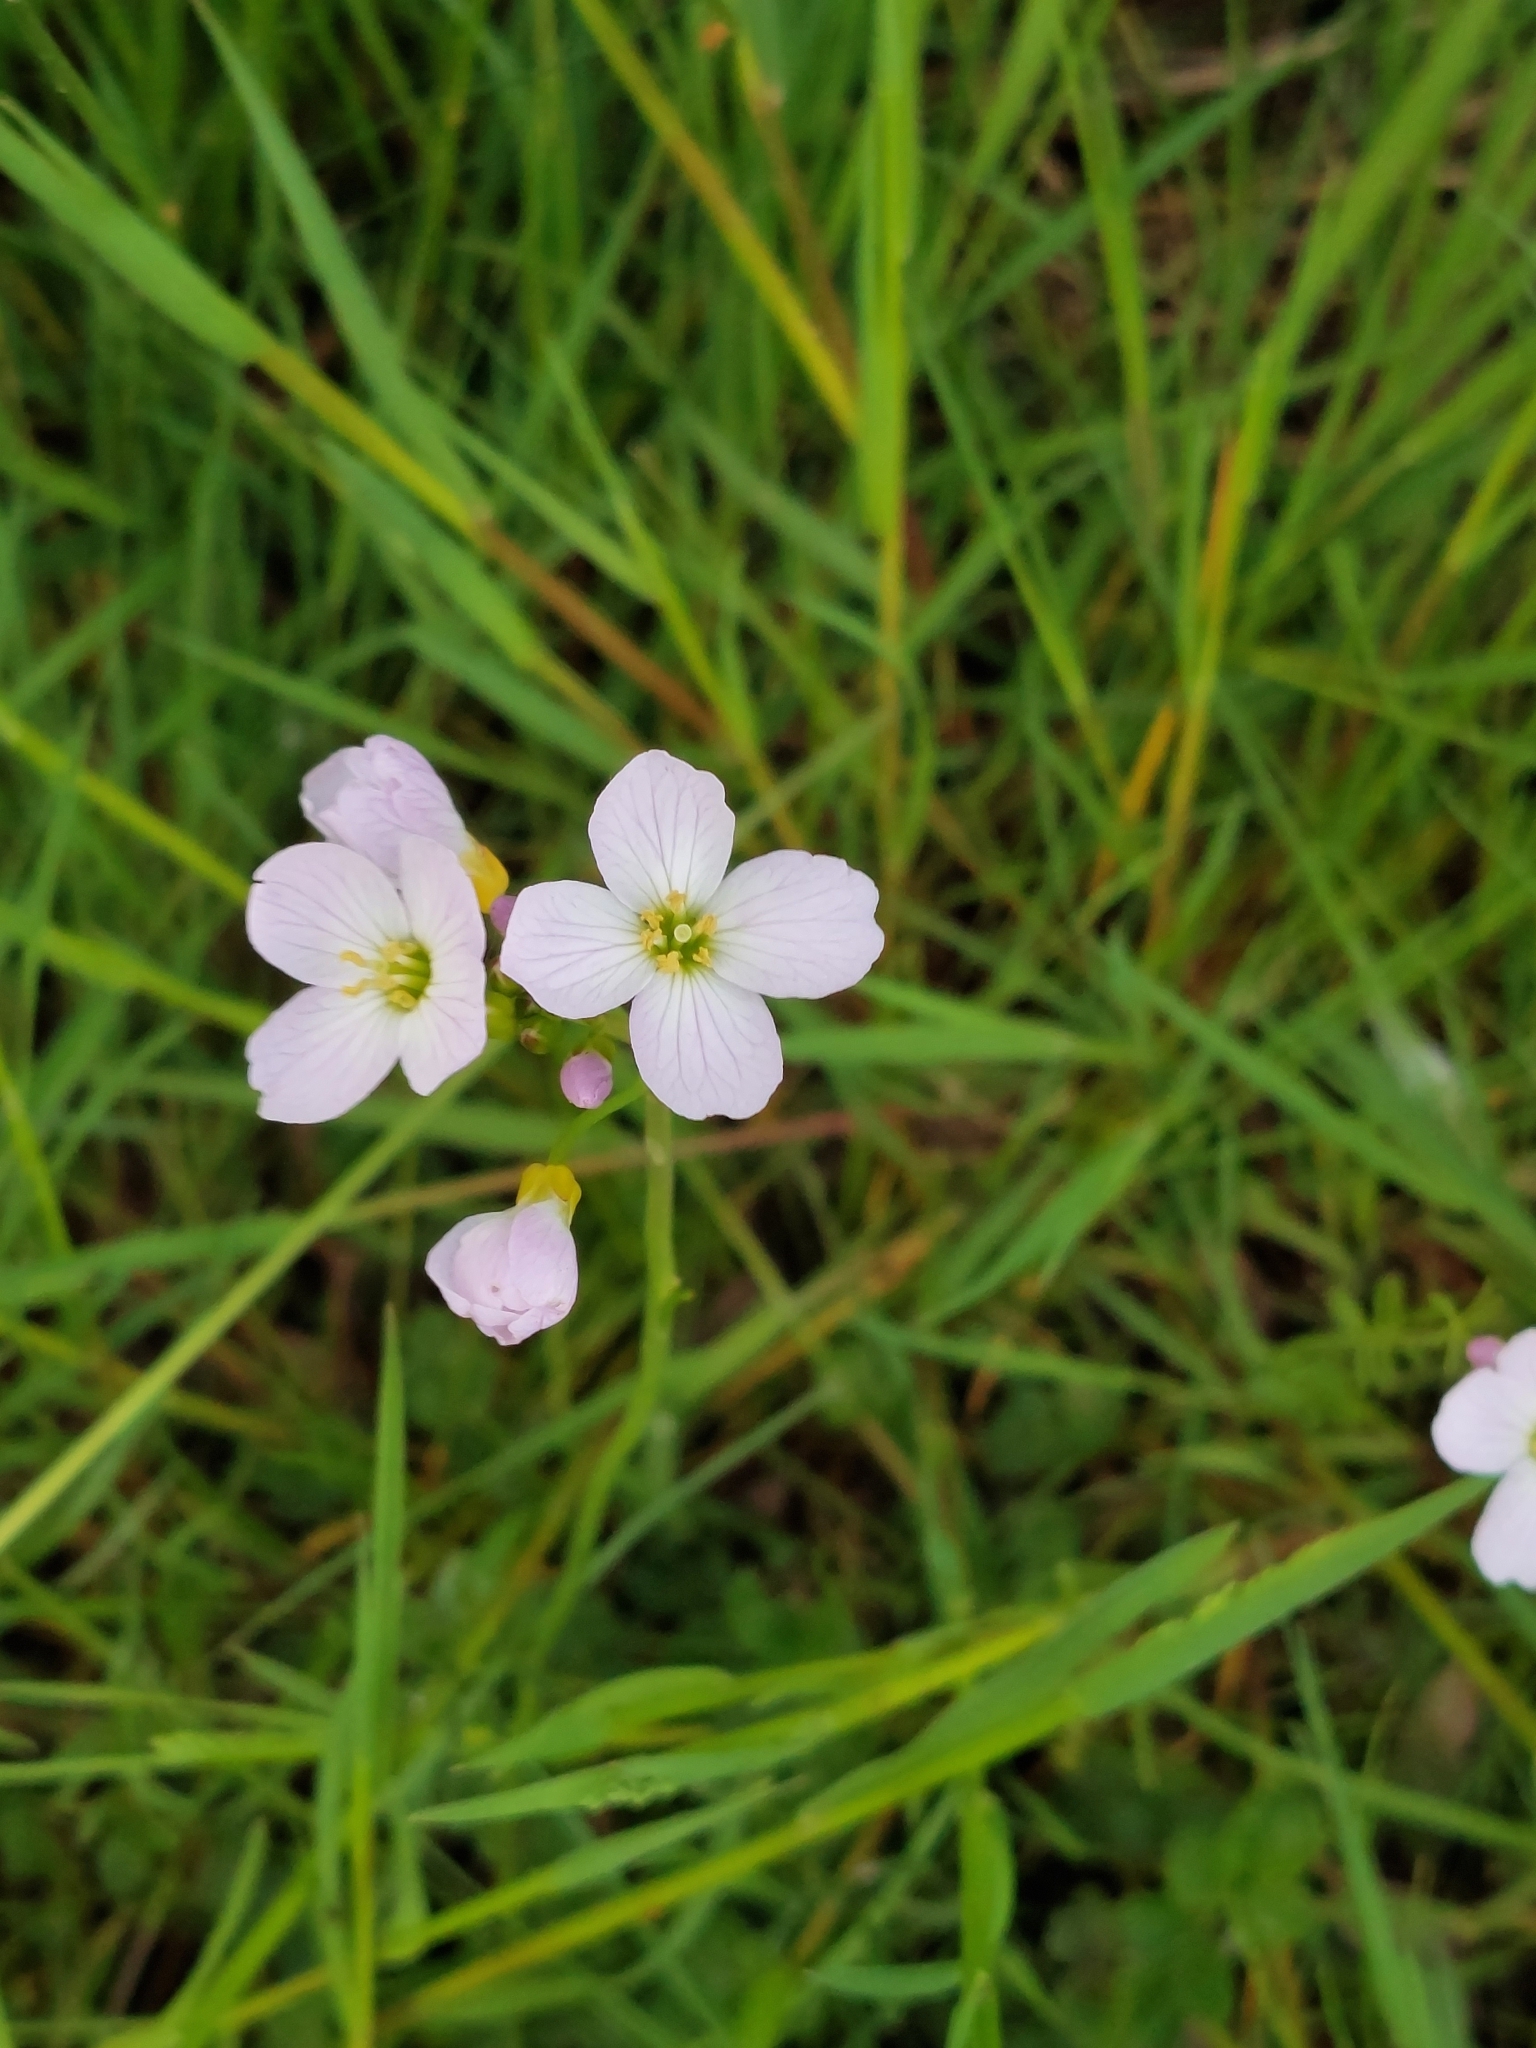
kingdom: Plantae
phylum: Tracheophyta
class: Magnoliopsida
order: Brassicales
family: Brassicaceae
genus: Cardamine
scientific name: Cardamine pratensis
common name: Cuckoo flower
